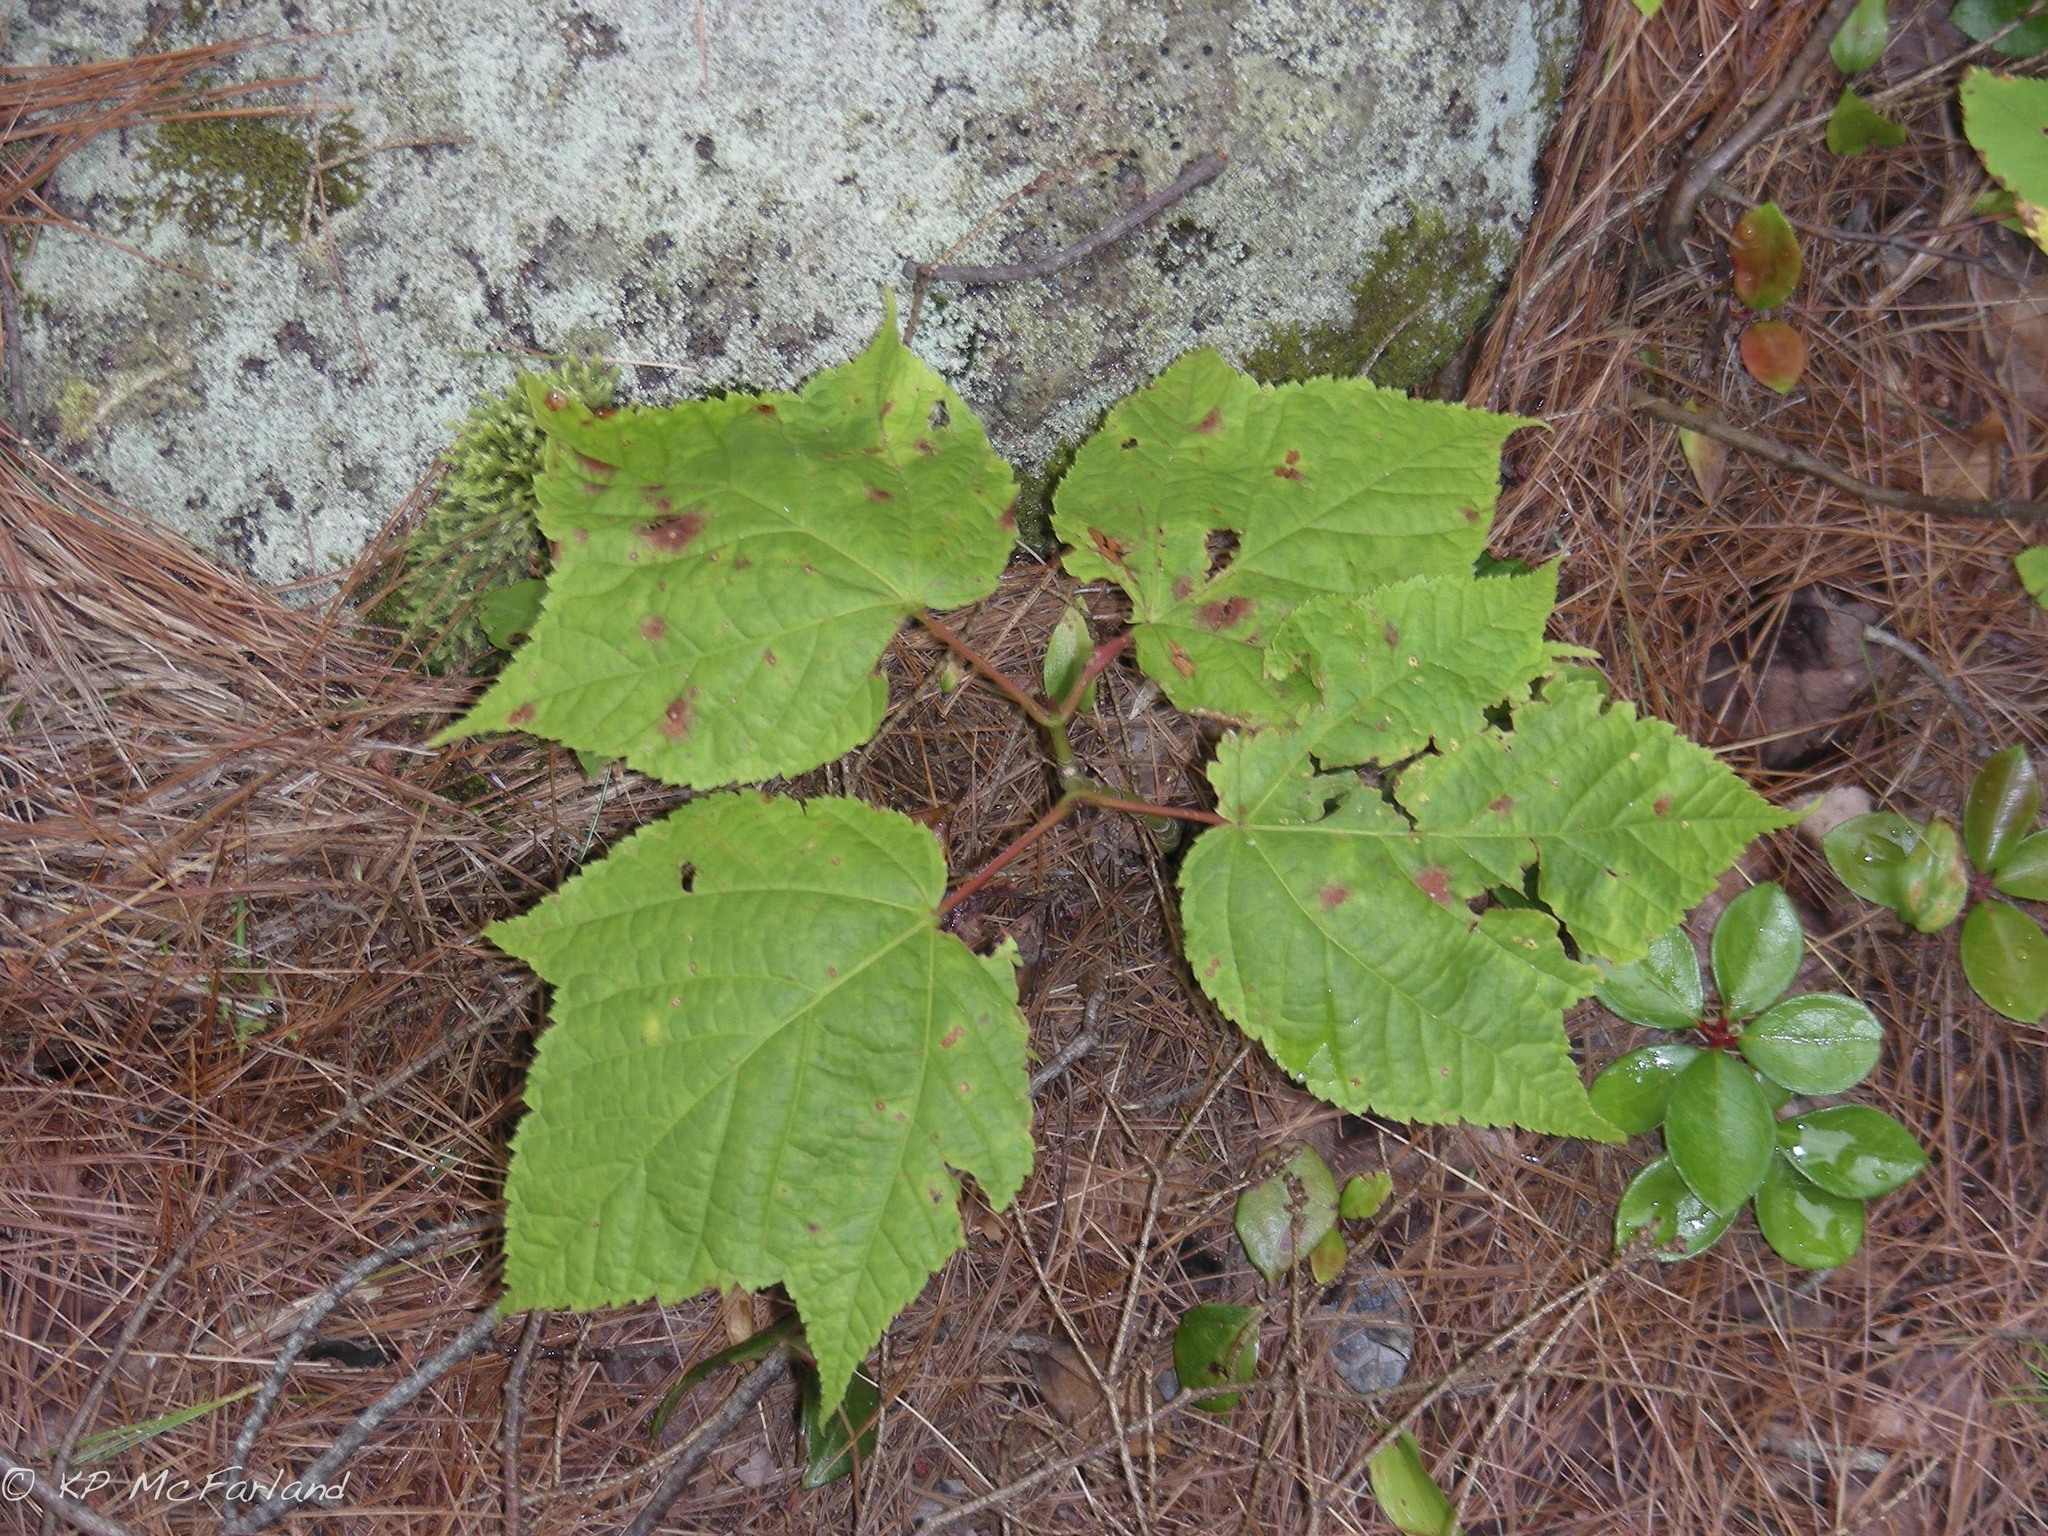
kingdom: Plantae
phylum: Tracheophyta
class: Magnoliopsida
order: Sapindales
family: Sapindaceae
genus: Acer
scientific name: Acer pensylvanicum
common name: Moosewood
